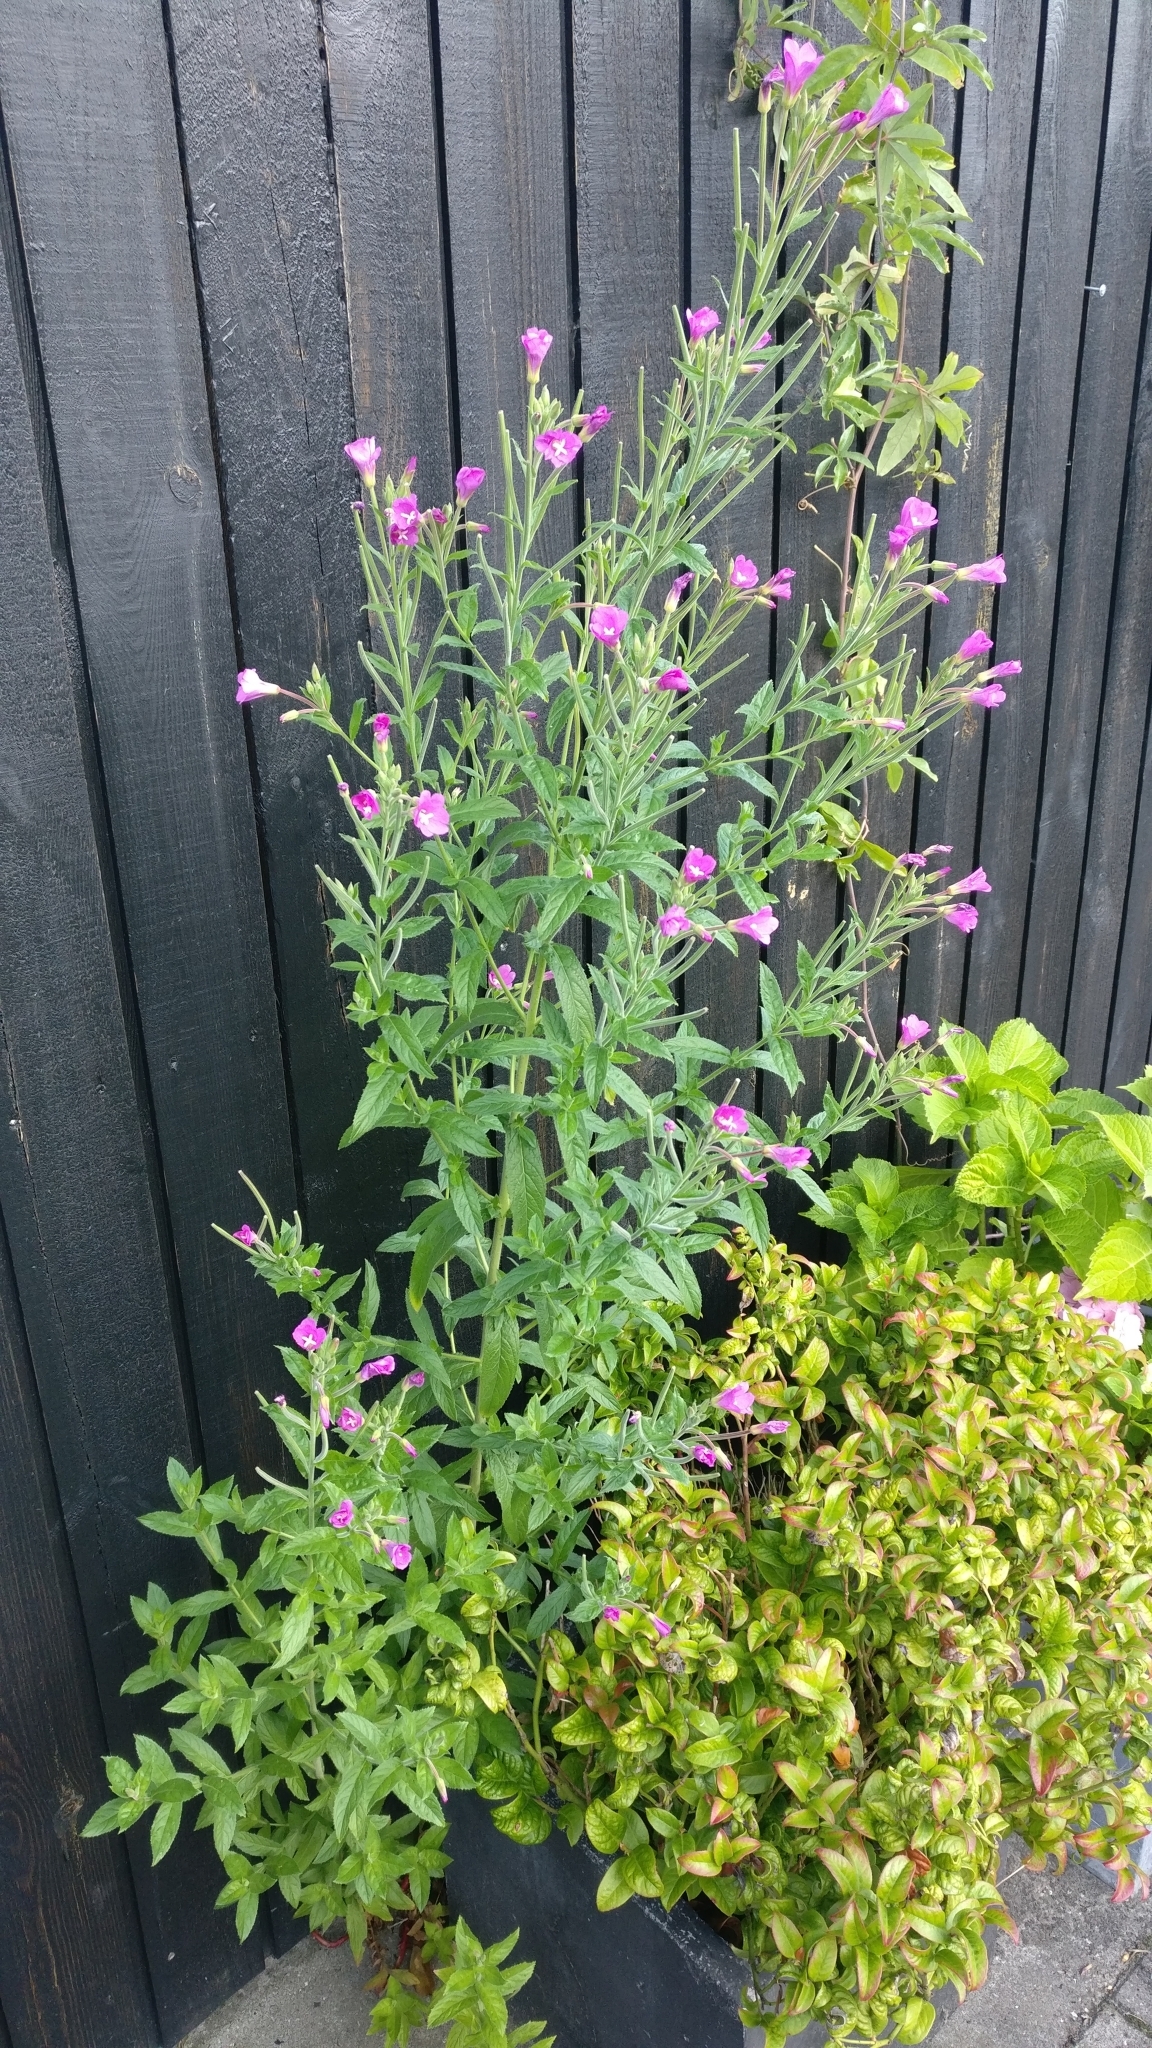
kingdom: Plantae
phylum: Tracheophyta
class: Magnoliopsida
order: Myrtales
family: Onagraceae
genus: Epilobium
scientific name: Epilobium hirsutum
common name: Great willowherb
